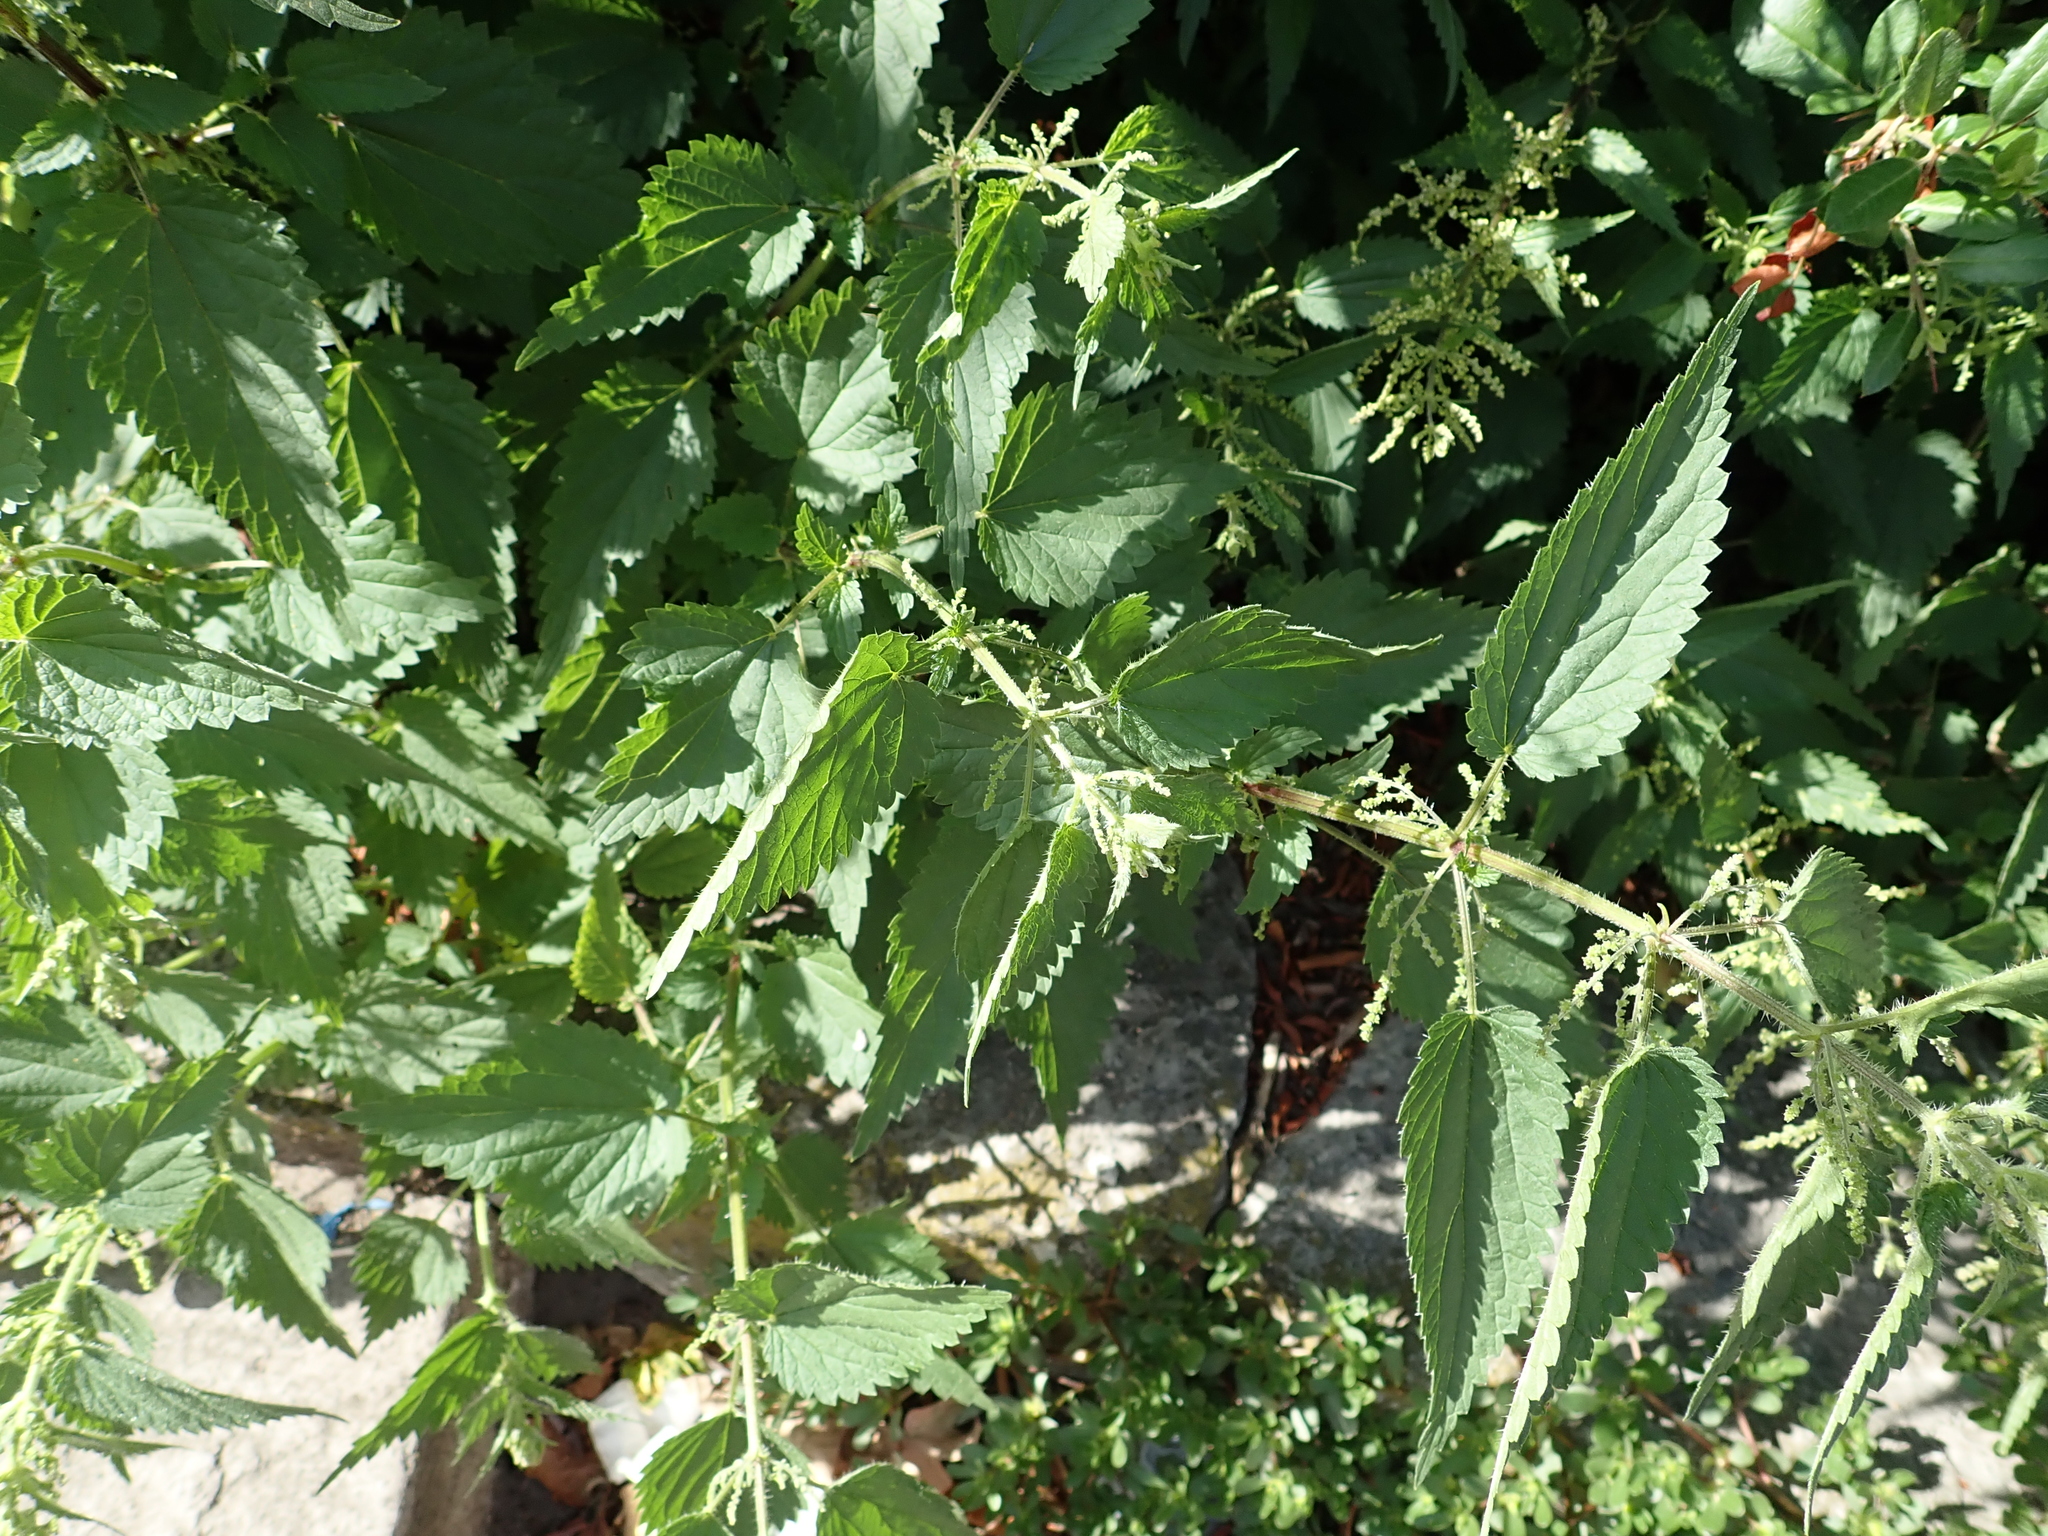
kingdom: Plantae
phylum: Tracheophyta
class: Magnoliopsida
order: Rosales
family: Urticaceae
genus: Urtica
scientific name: Urtica dioica
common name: Common nettle
